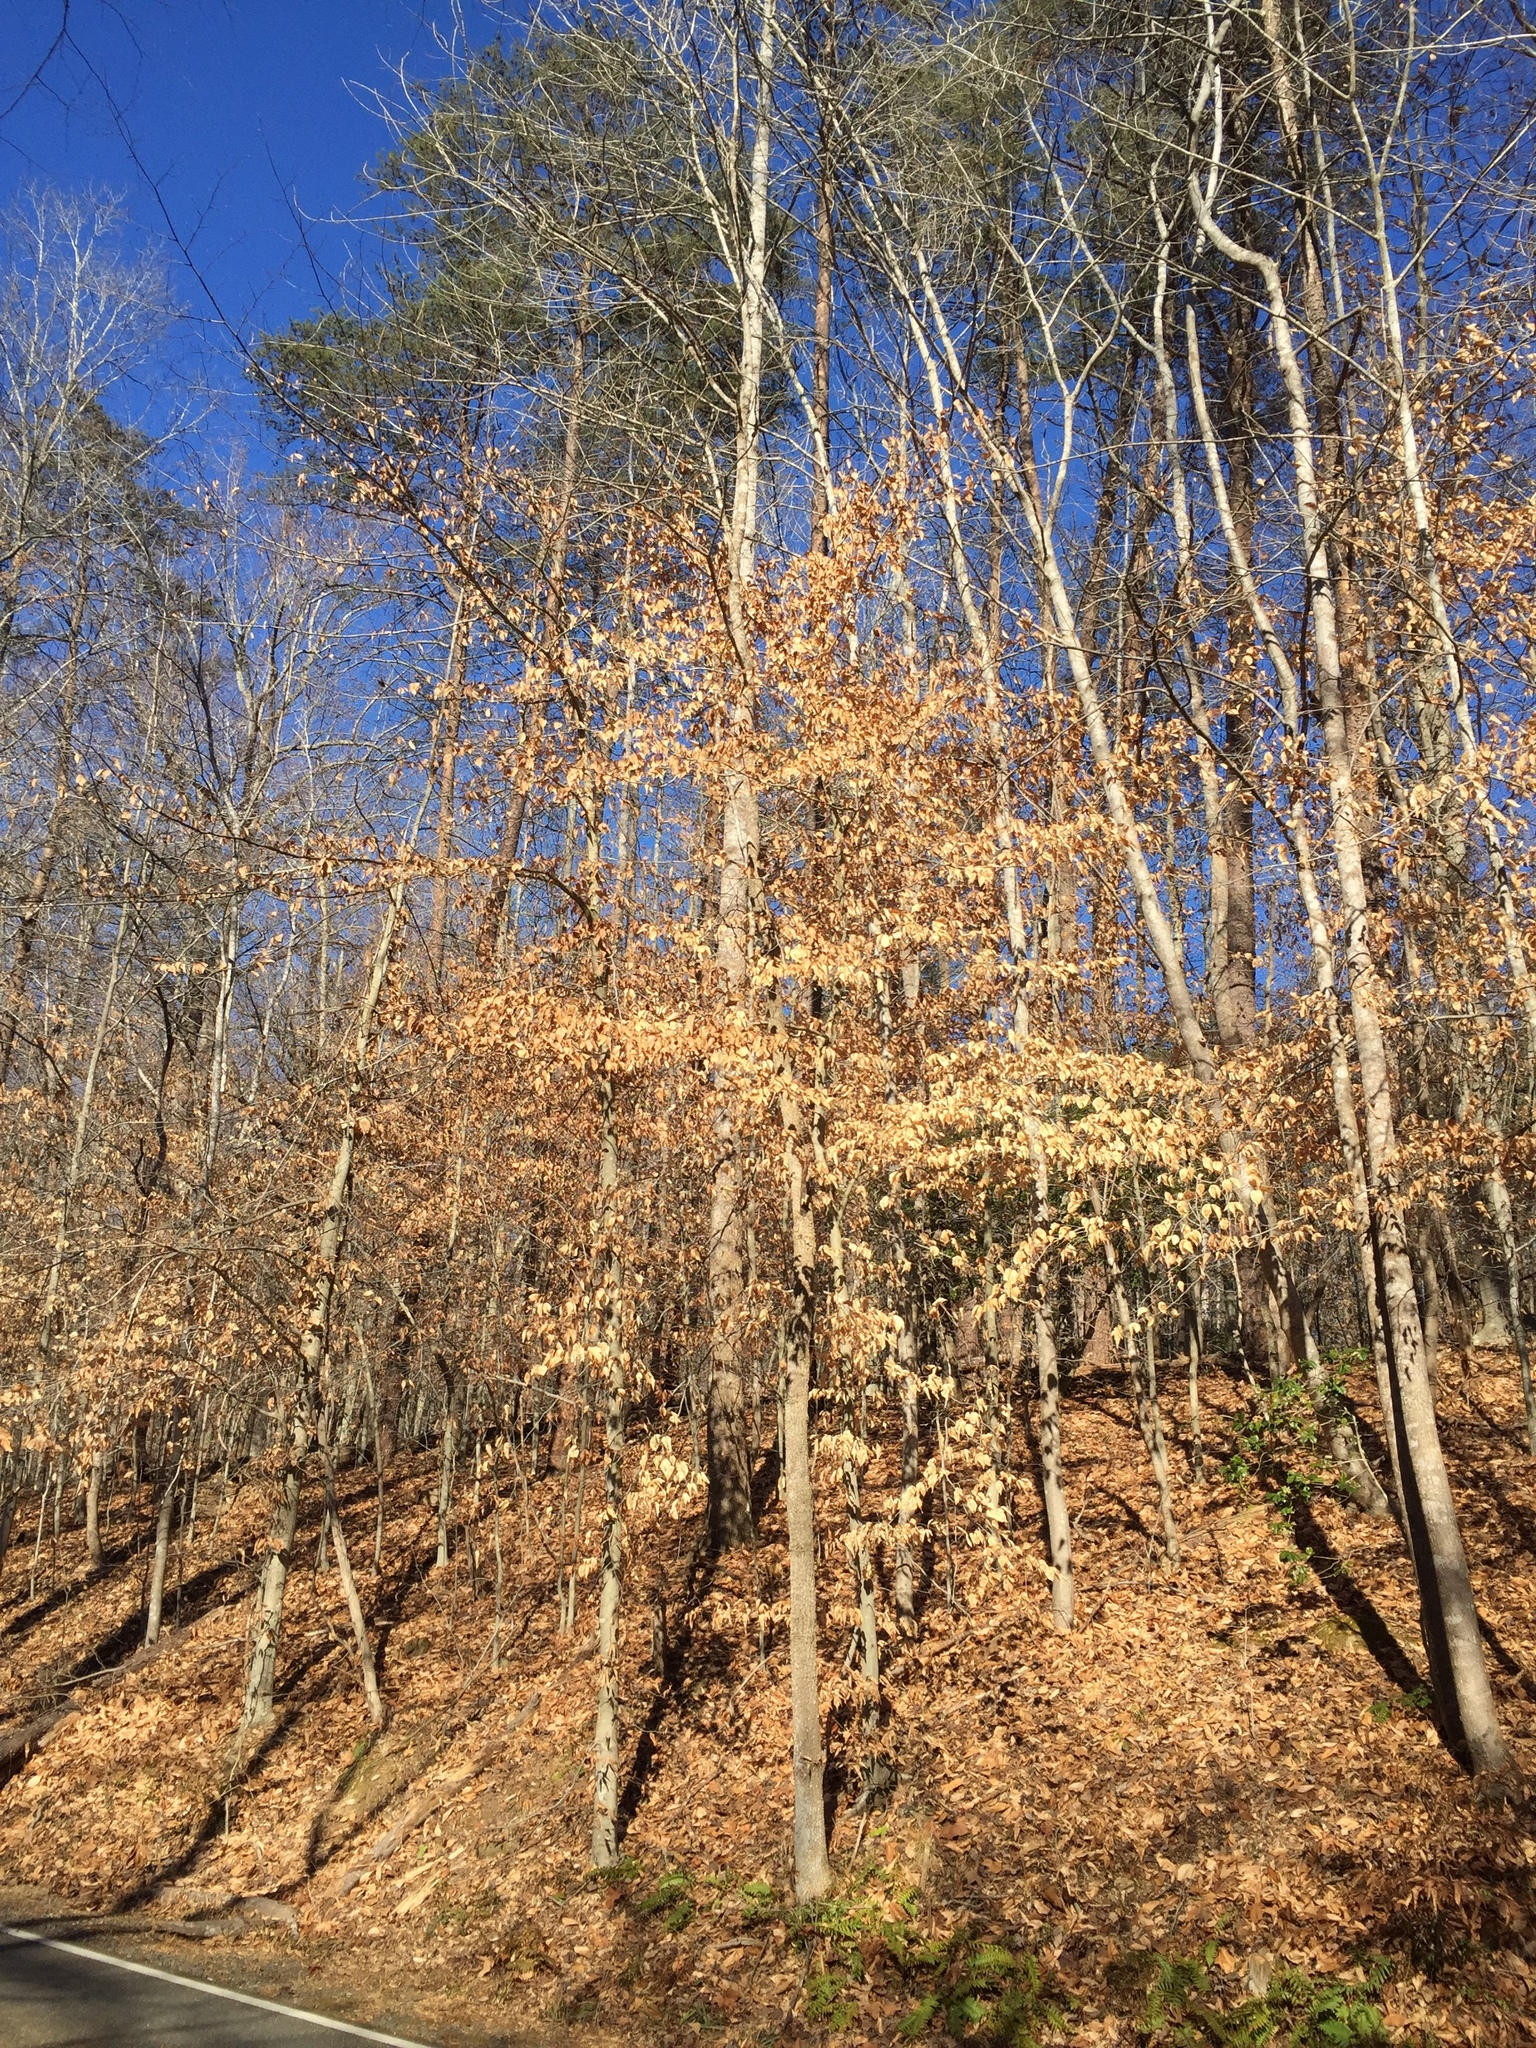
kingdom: Plantae
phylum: Tracheophyta
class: Magnoliopsida
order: Fagales
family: Fagaceae
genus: Fagus
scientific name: Fagus grandifolia
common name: American beech
